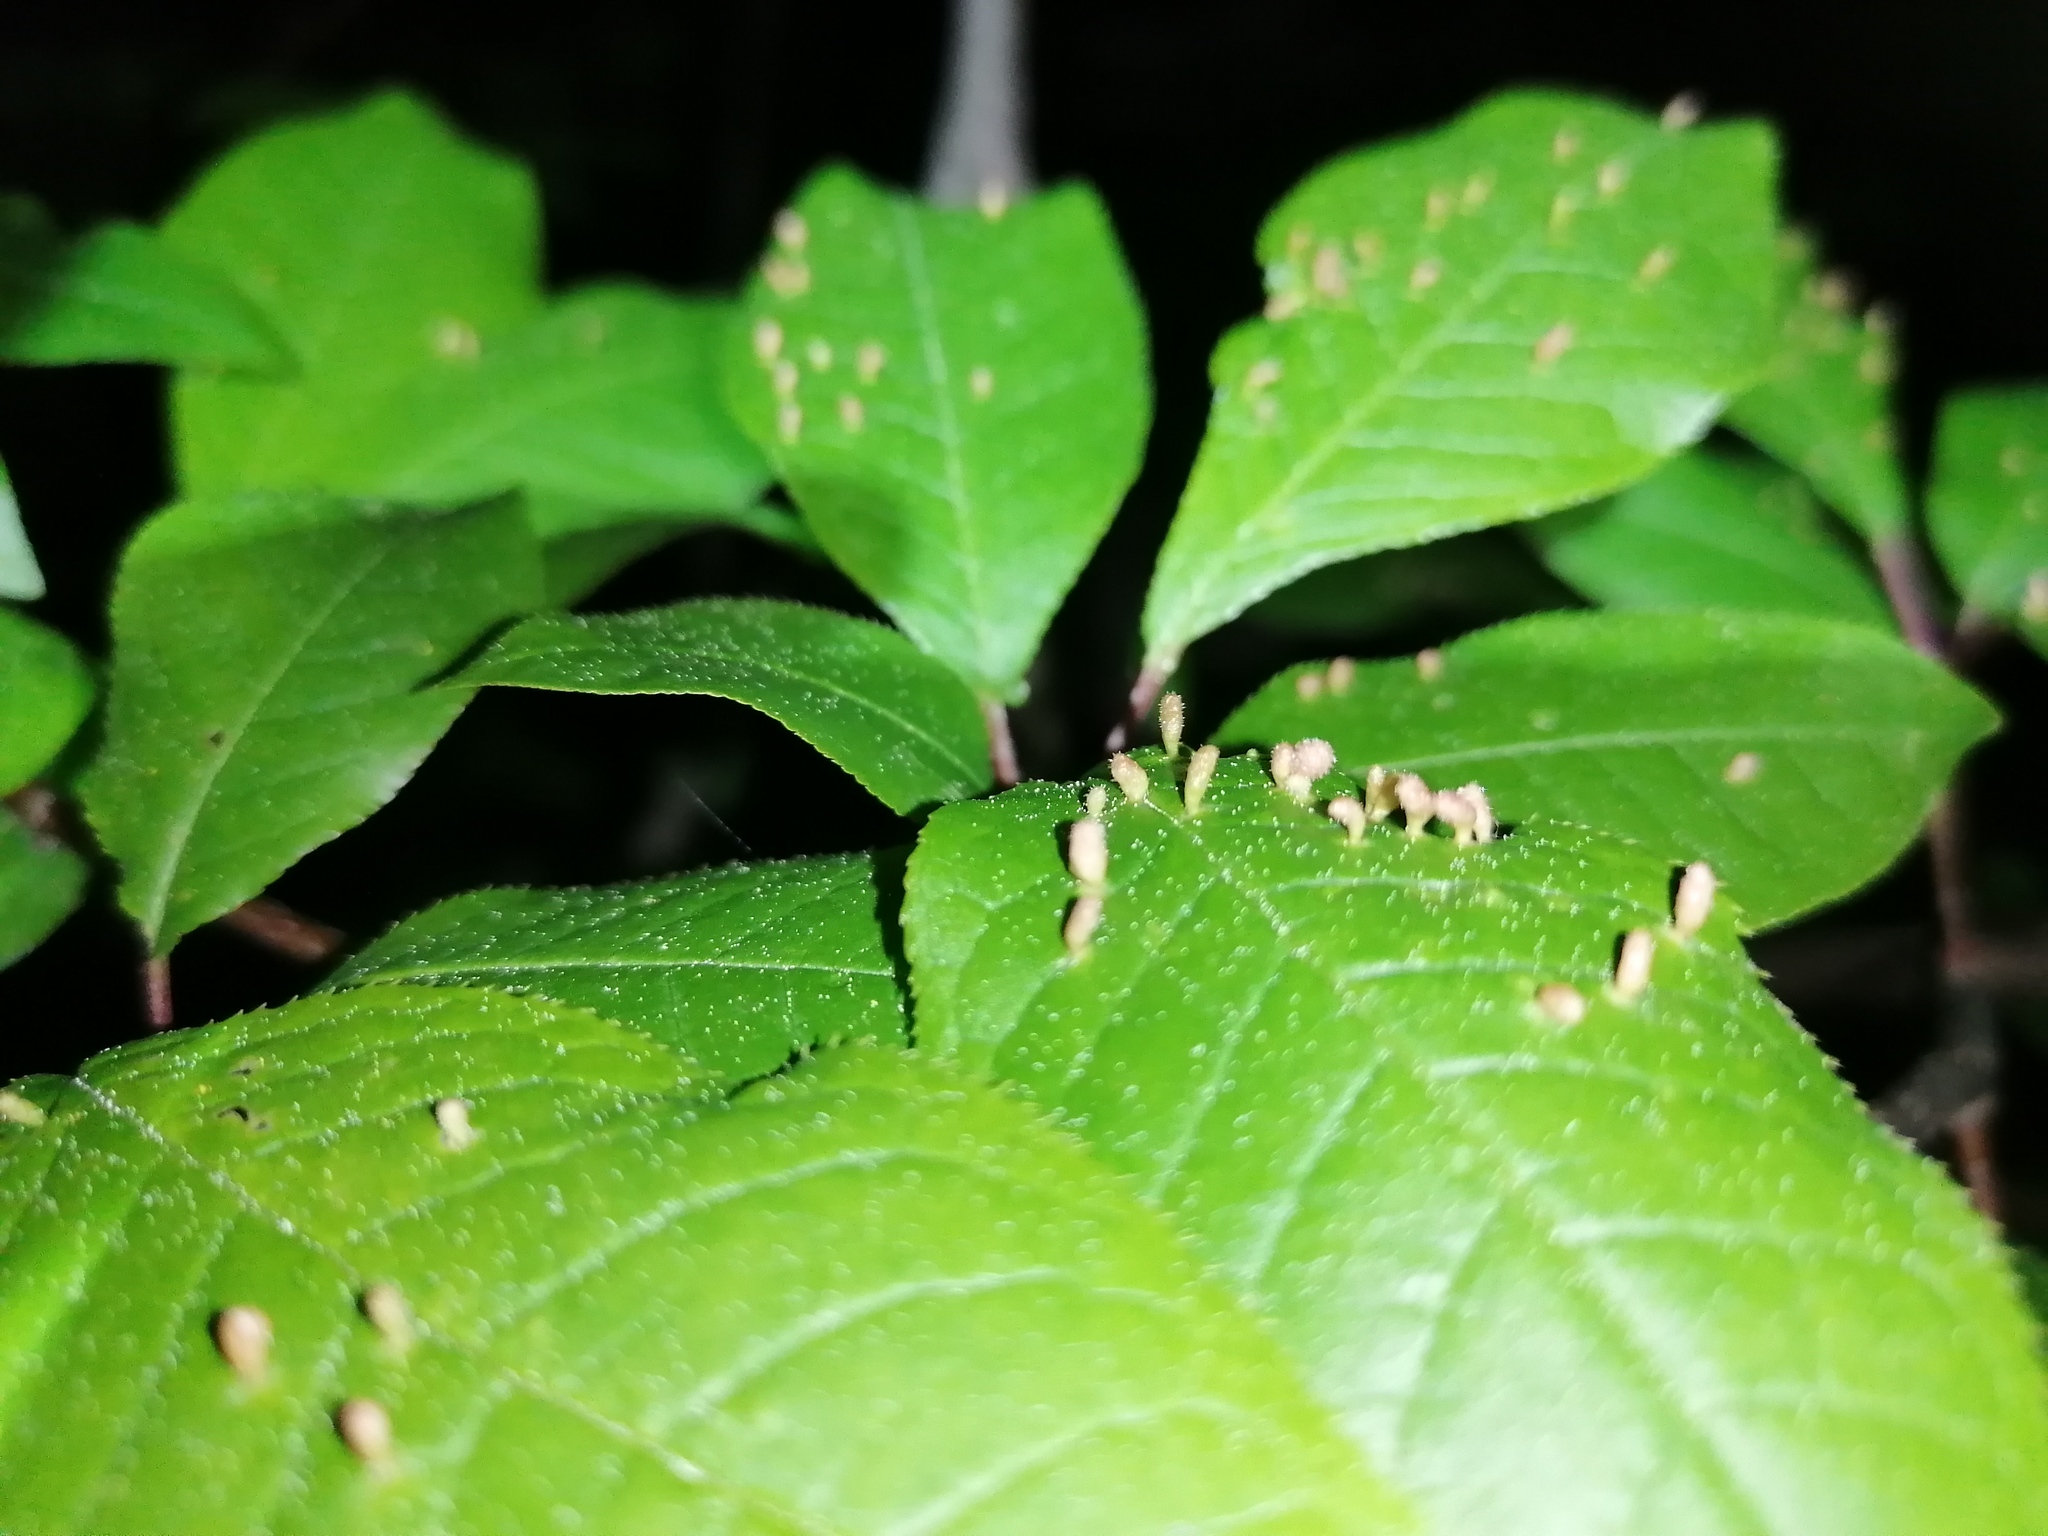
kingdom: Animalia
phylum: Arthropoda
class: Arachnida
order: Trombidiformes
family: Eriophyidae
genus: Phyllocoptes
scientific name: Phyllocoptes eupadi
